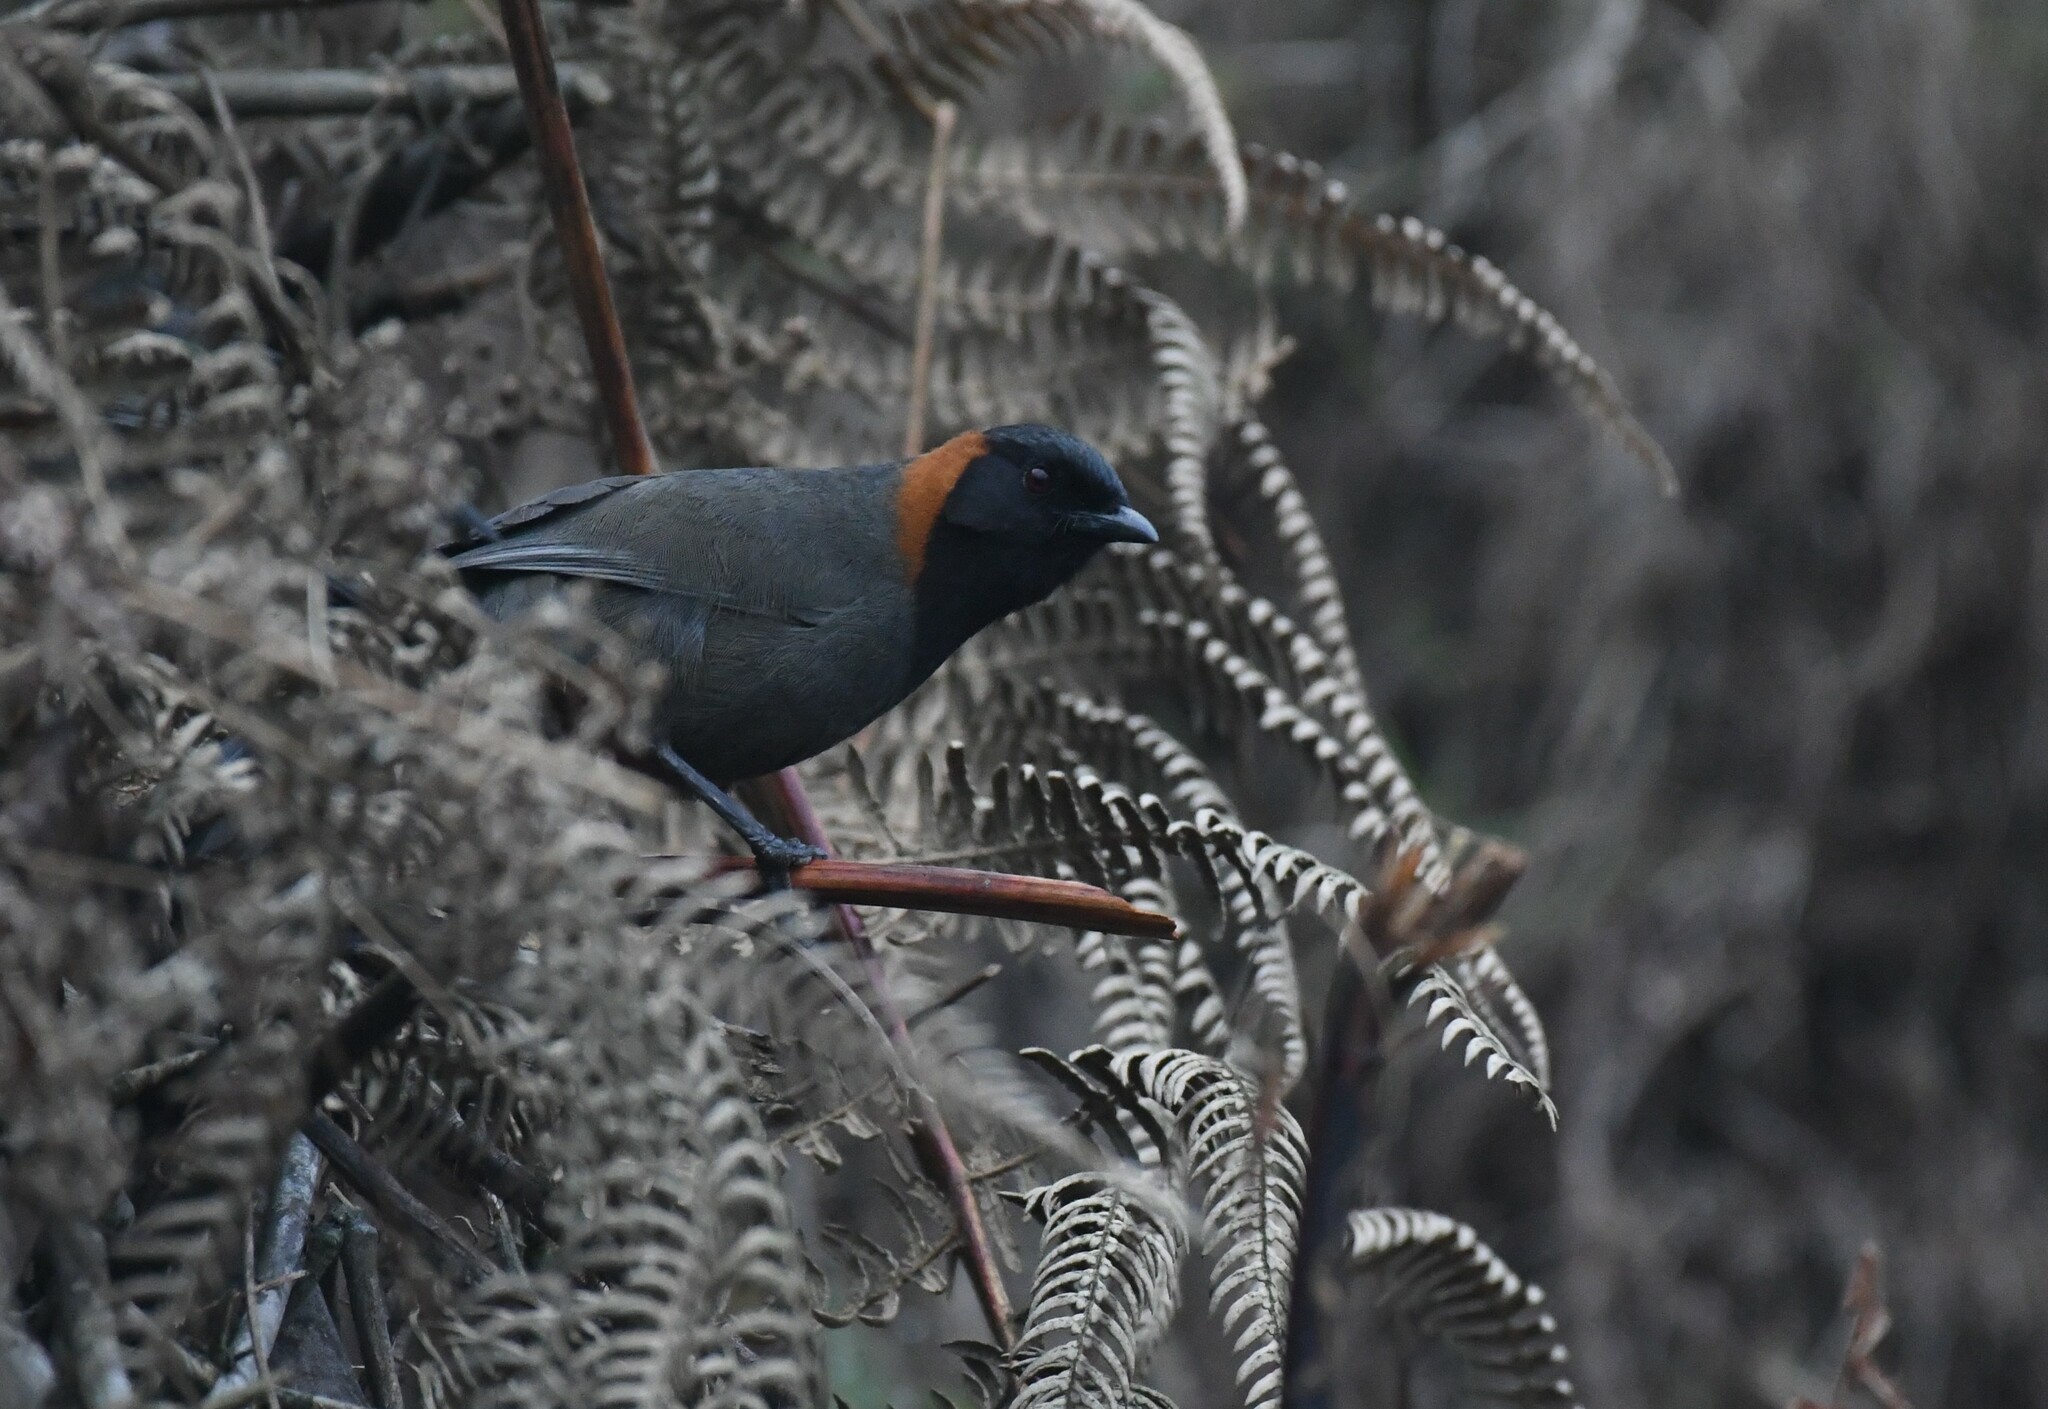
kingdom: Animalia
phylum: Chordata
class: Aves
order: Passeriformes
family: Leiothrichidae
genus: Garrulax
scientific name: Garrulax ruficollis
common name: Rufous-necked laughingthrush
